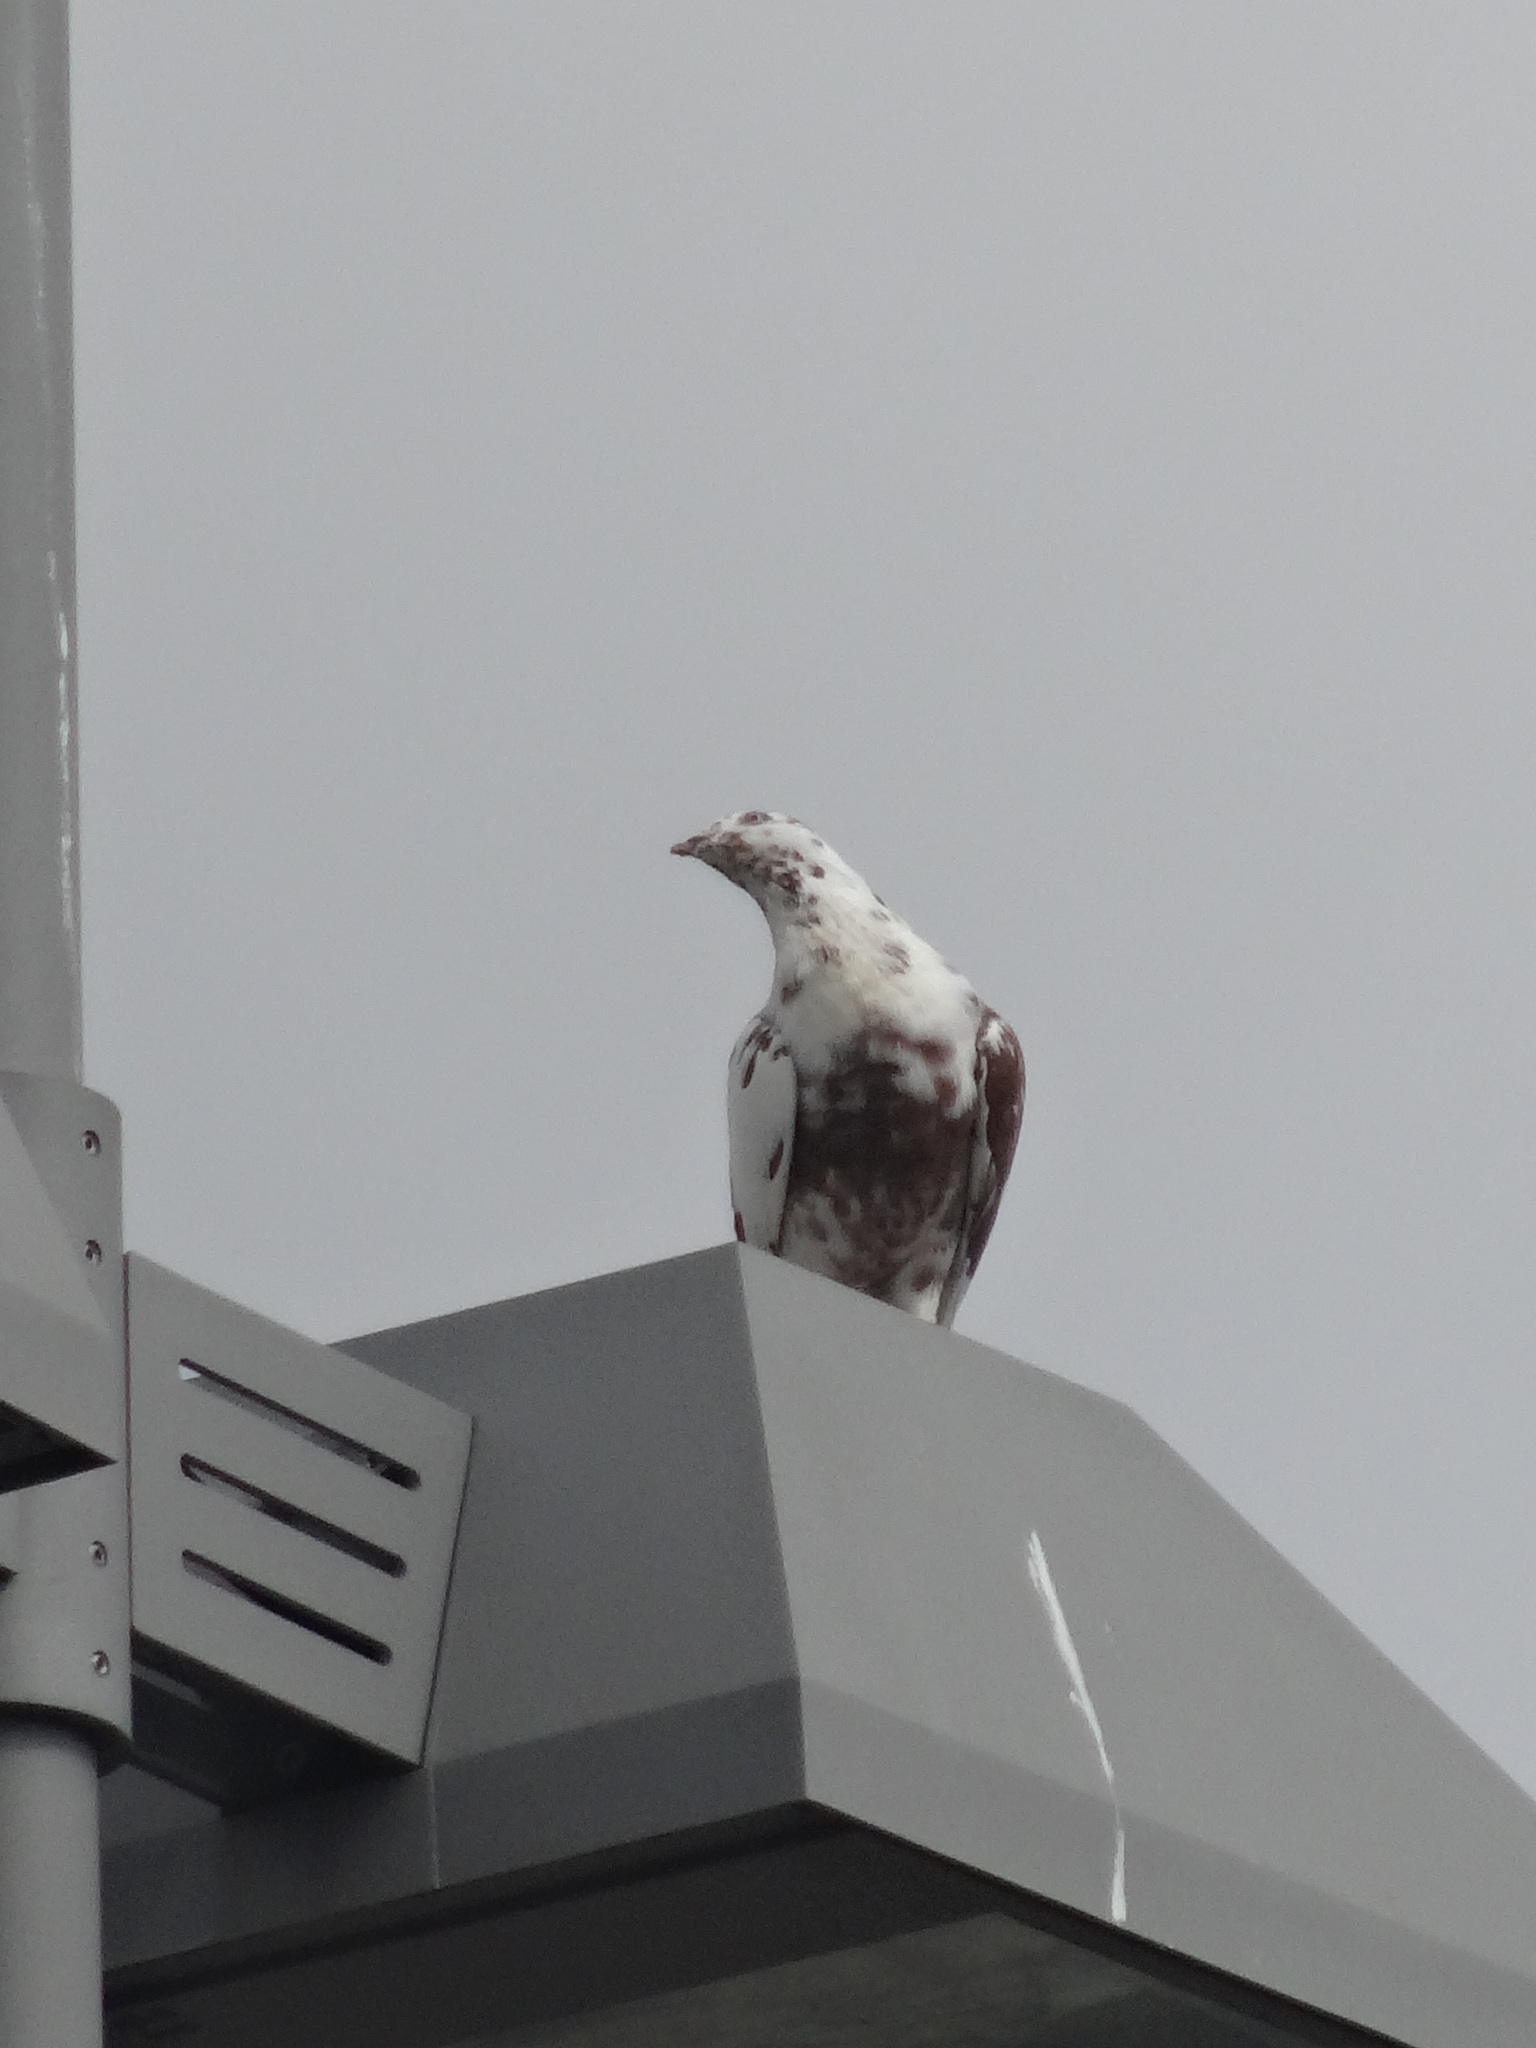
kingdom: Animalia
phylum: Chordata
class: Aves
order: Columbiformes
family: Columbidae
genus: Columba
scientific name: Columba livia
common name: Rock pigeon
